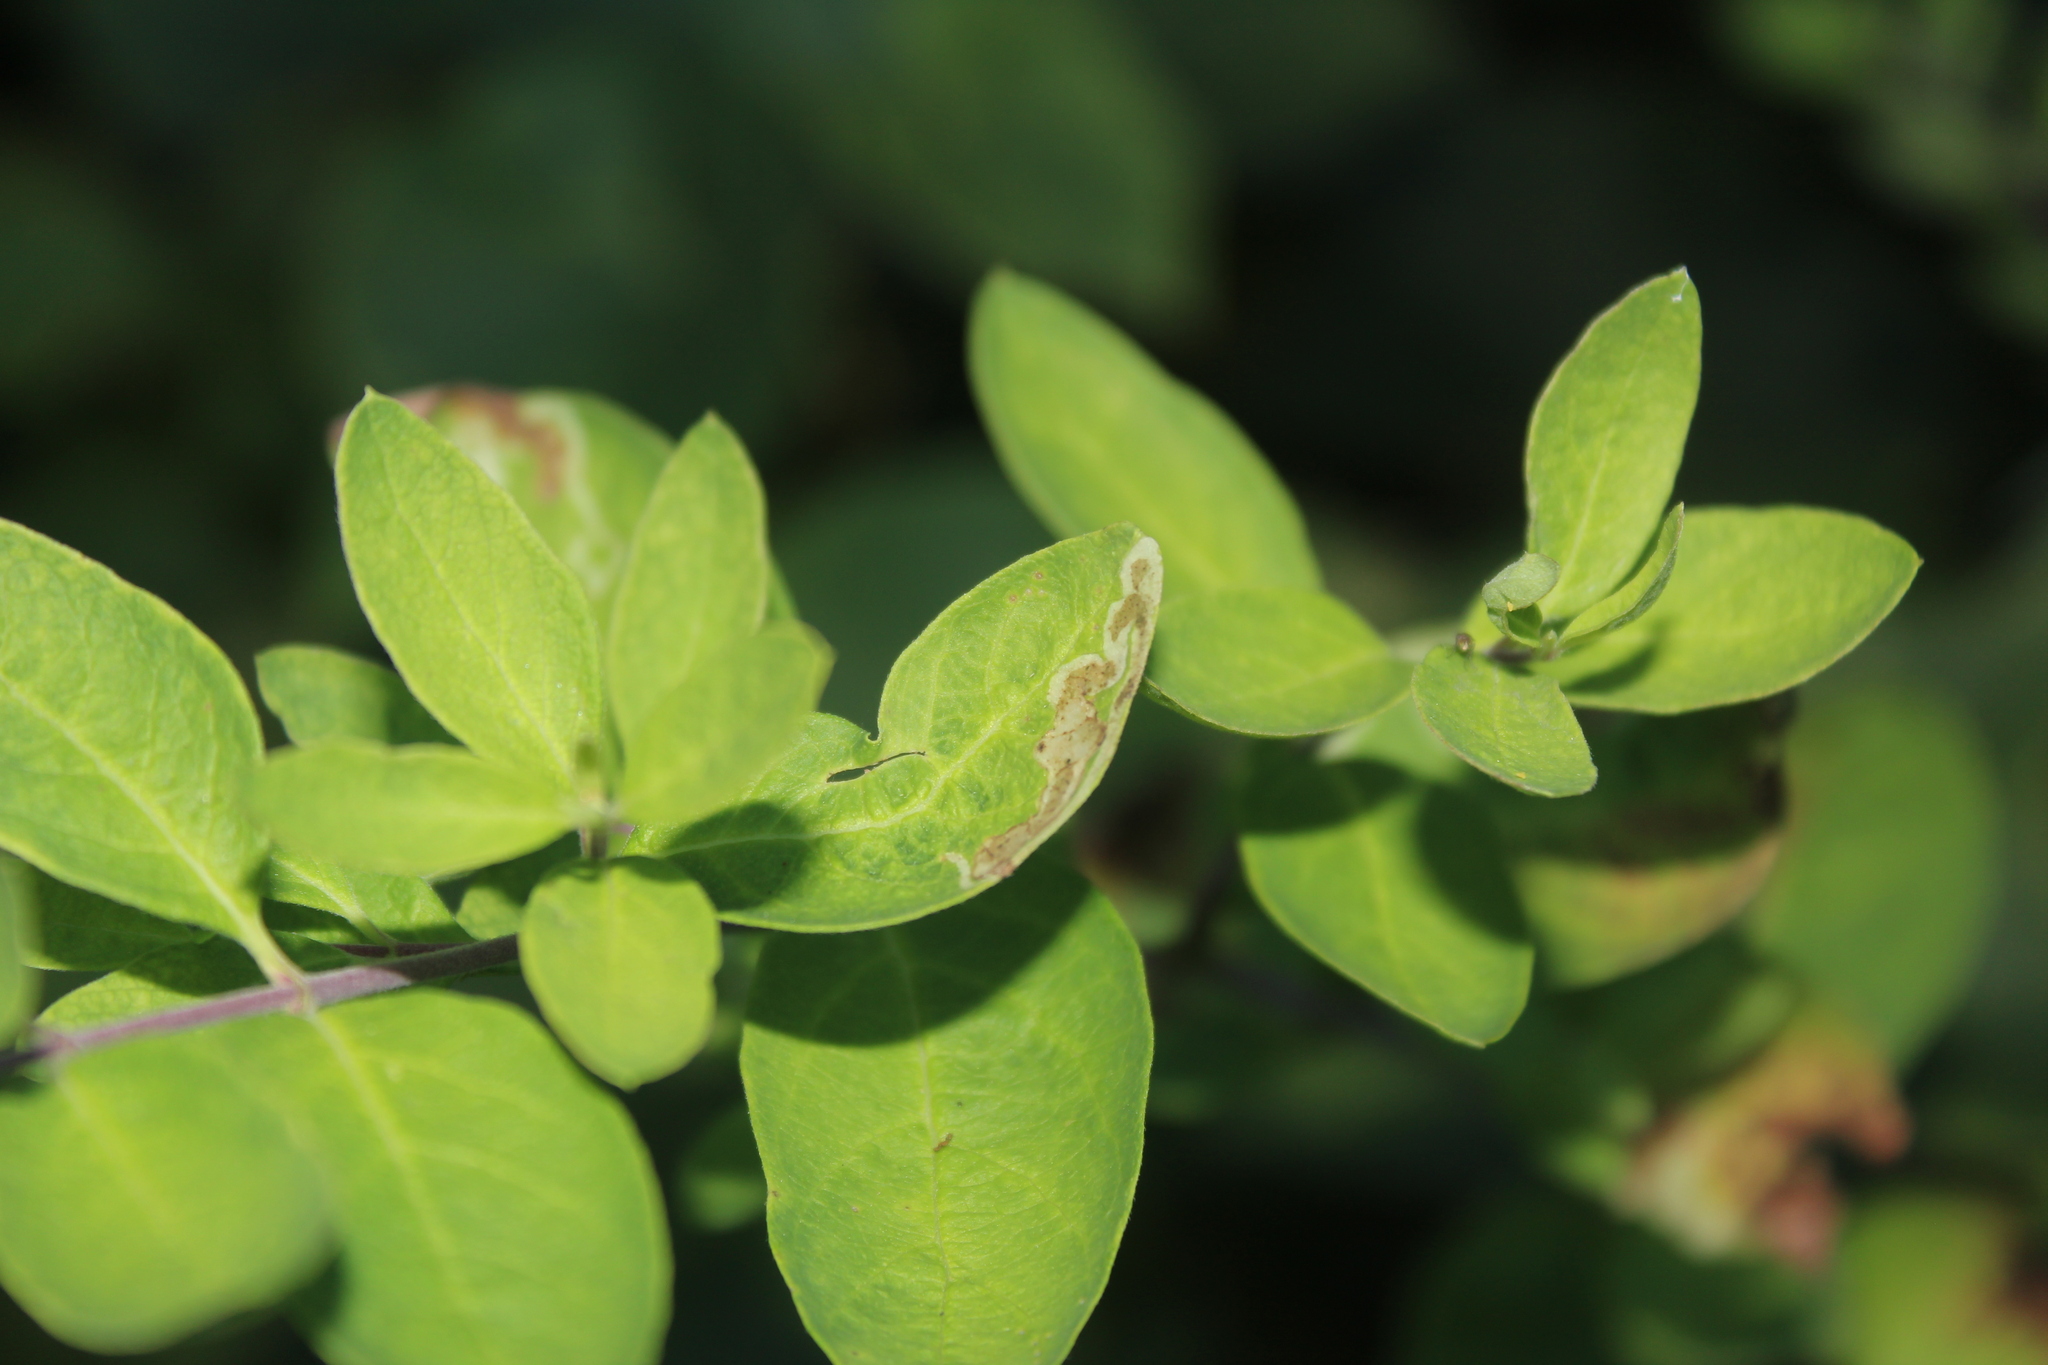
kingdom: Animalia
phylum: Arthropoda
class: Insecta
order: Diptera
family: Agromyzidae
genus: Aulagromyza
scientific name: Aulagromyza
